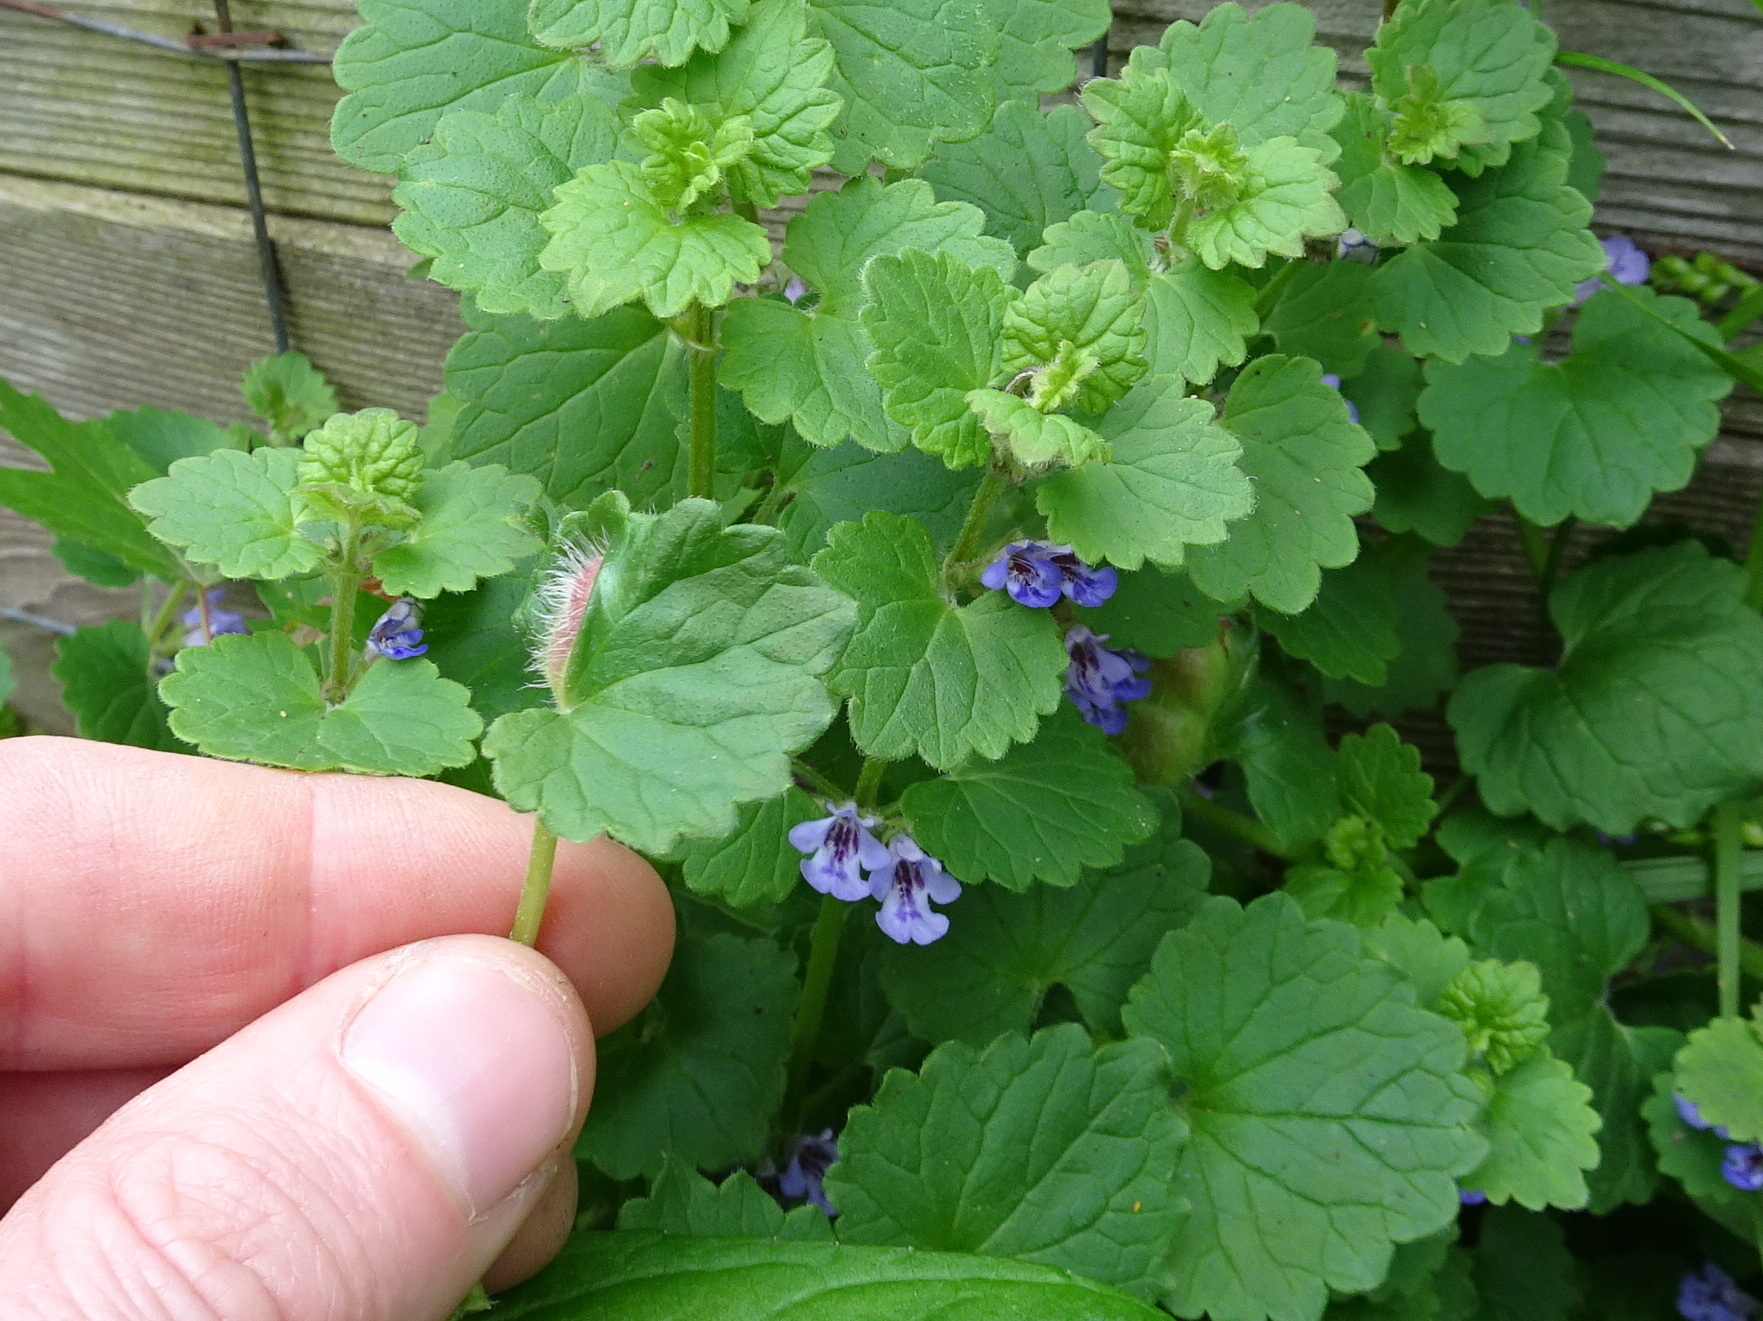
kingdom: Animalia
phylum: Arthropoda
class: Insecta
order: Hymenoptera
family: Cynipidae
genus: Liposthenes
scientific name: Liposthenes glechomae
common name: Gall wasp
